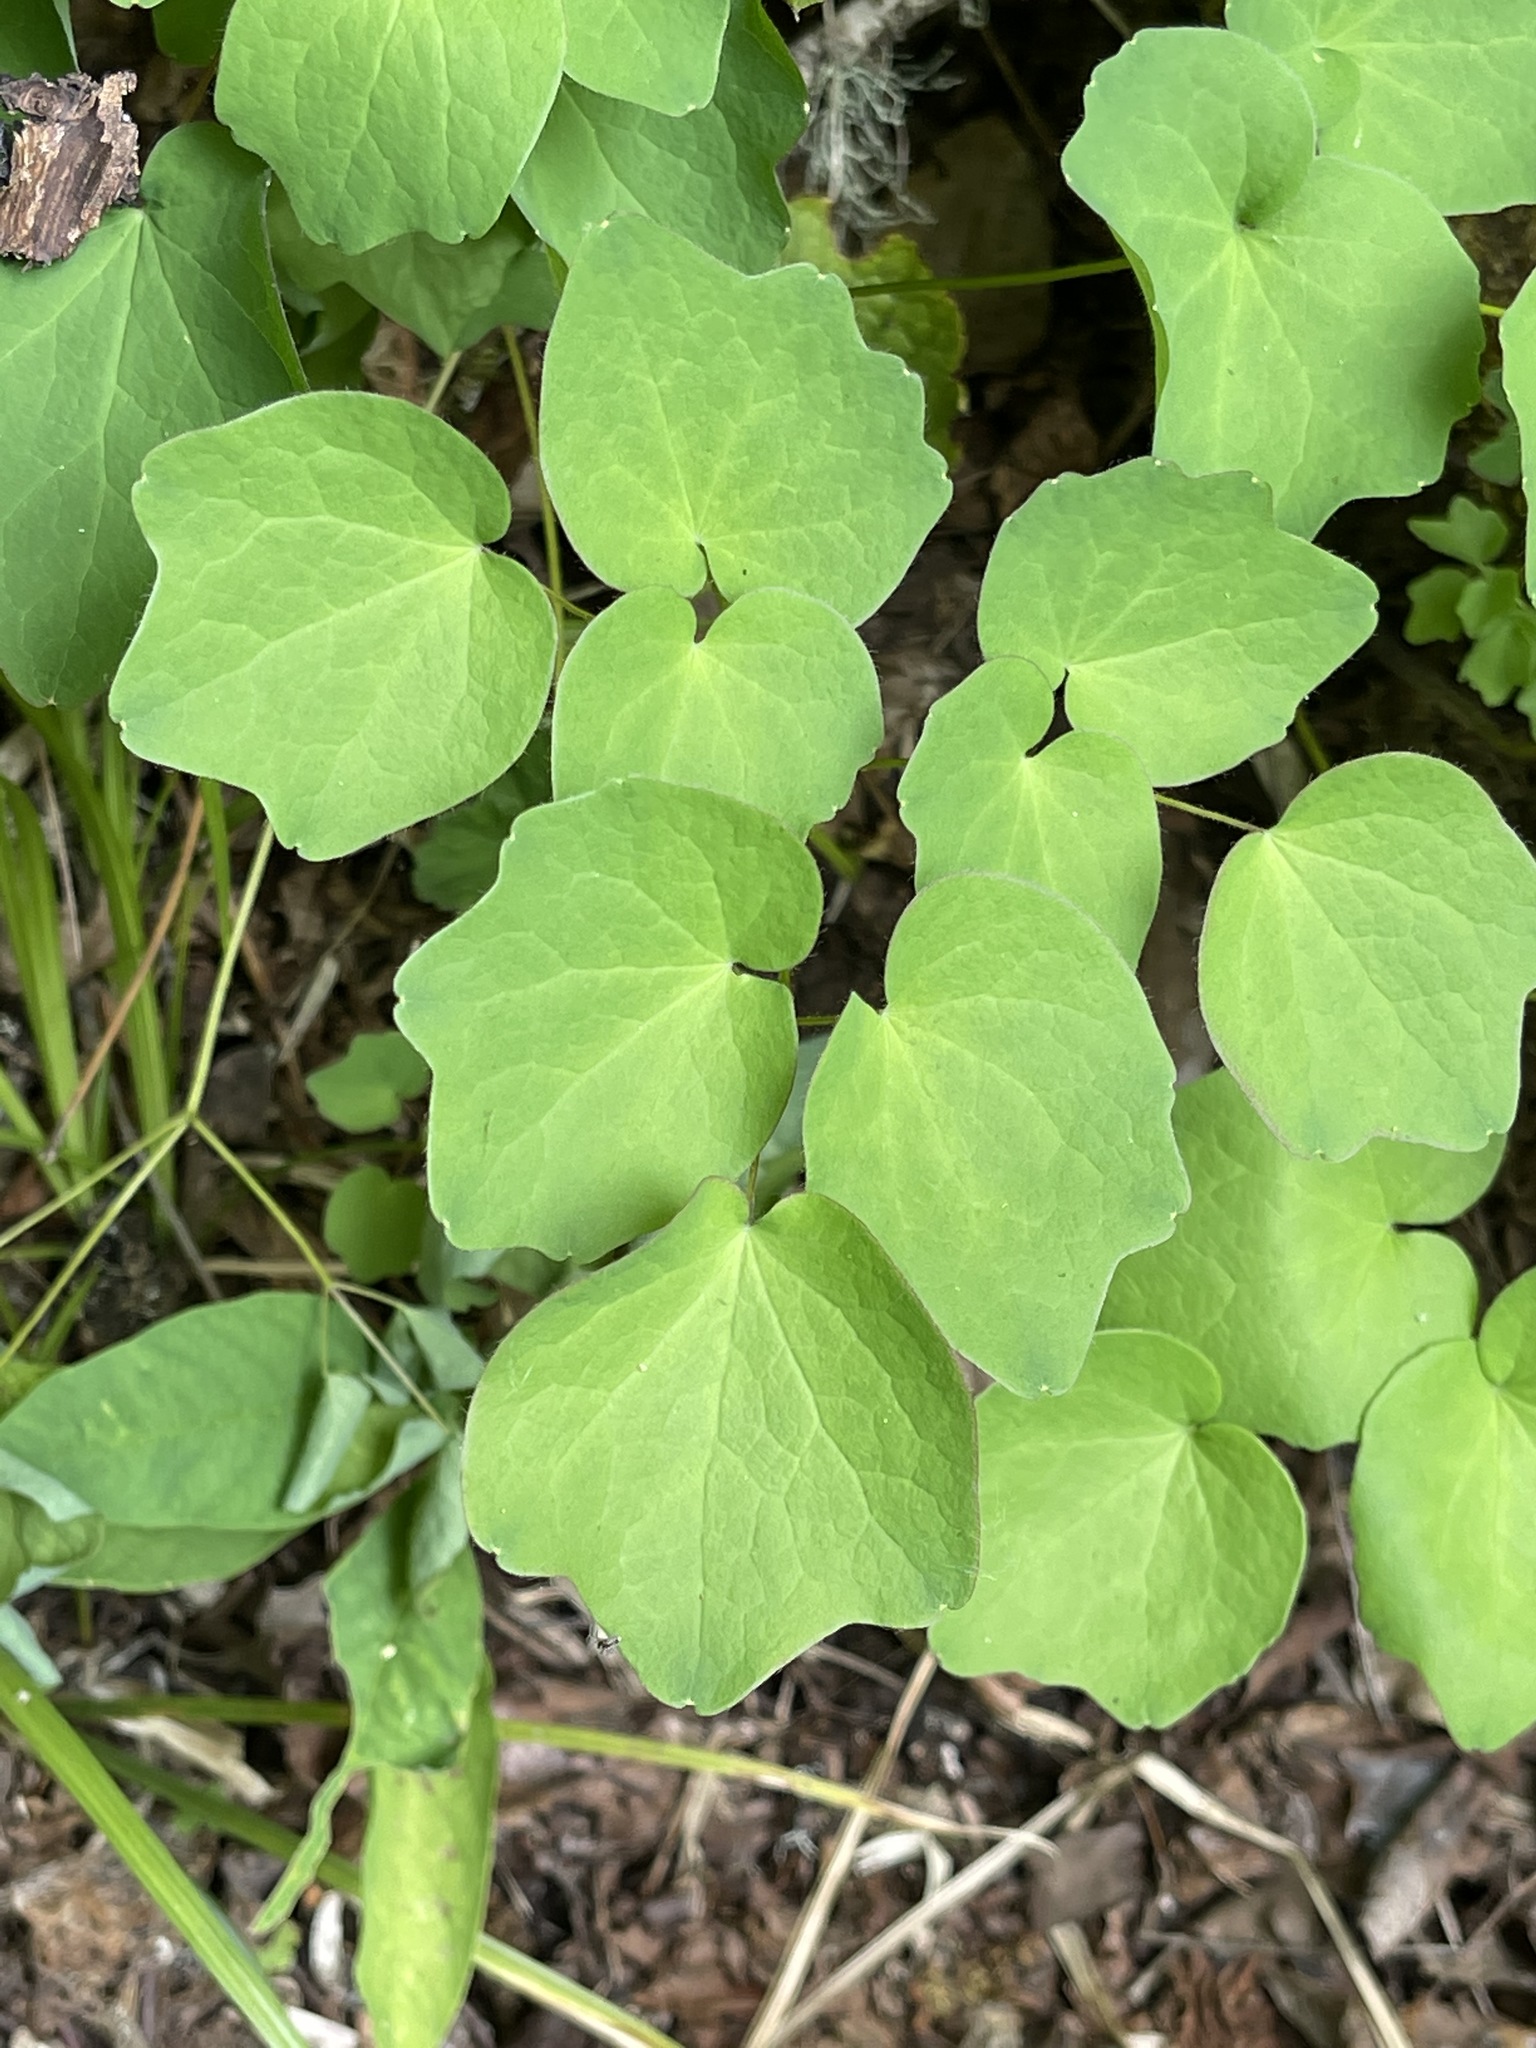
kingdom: Plantae
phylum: Tracheophyta
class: Magnoliopsida
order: Ranunculales
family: Berberidaceae
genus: Vancouveria
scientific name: Vancouveria hexandra
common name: Northern inside-out-flower
